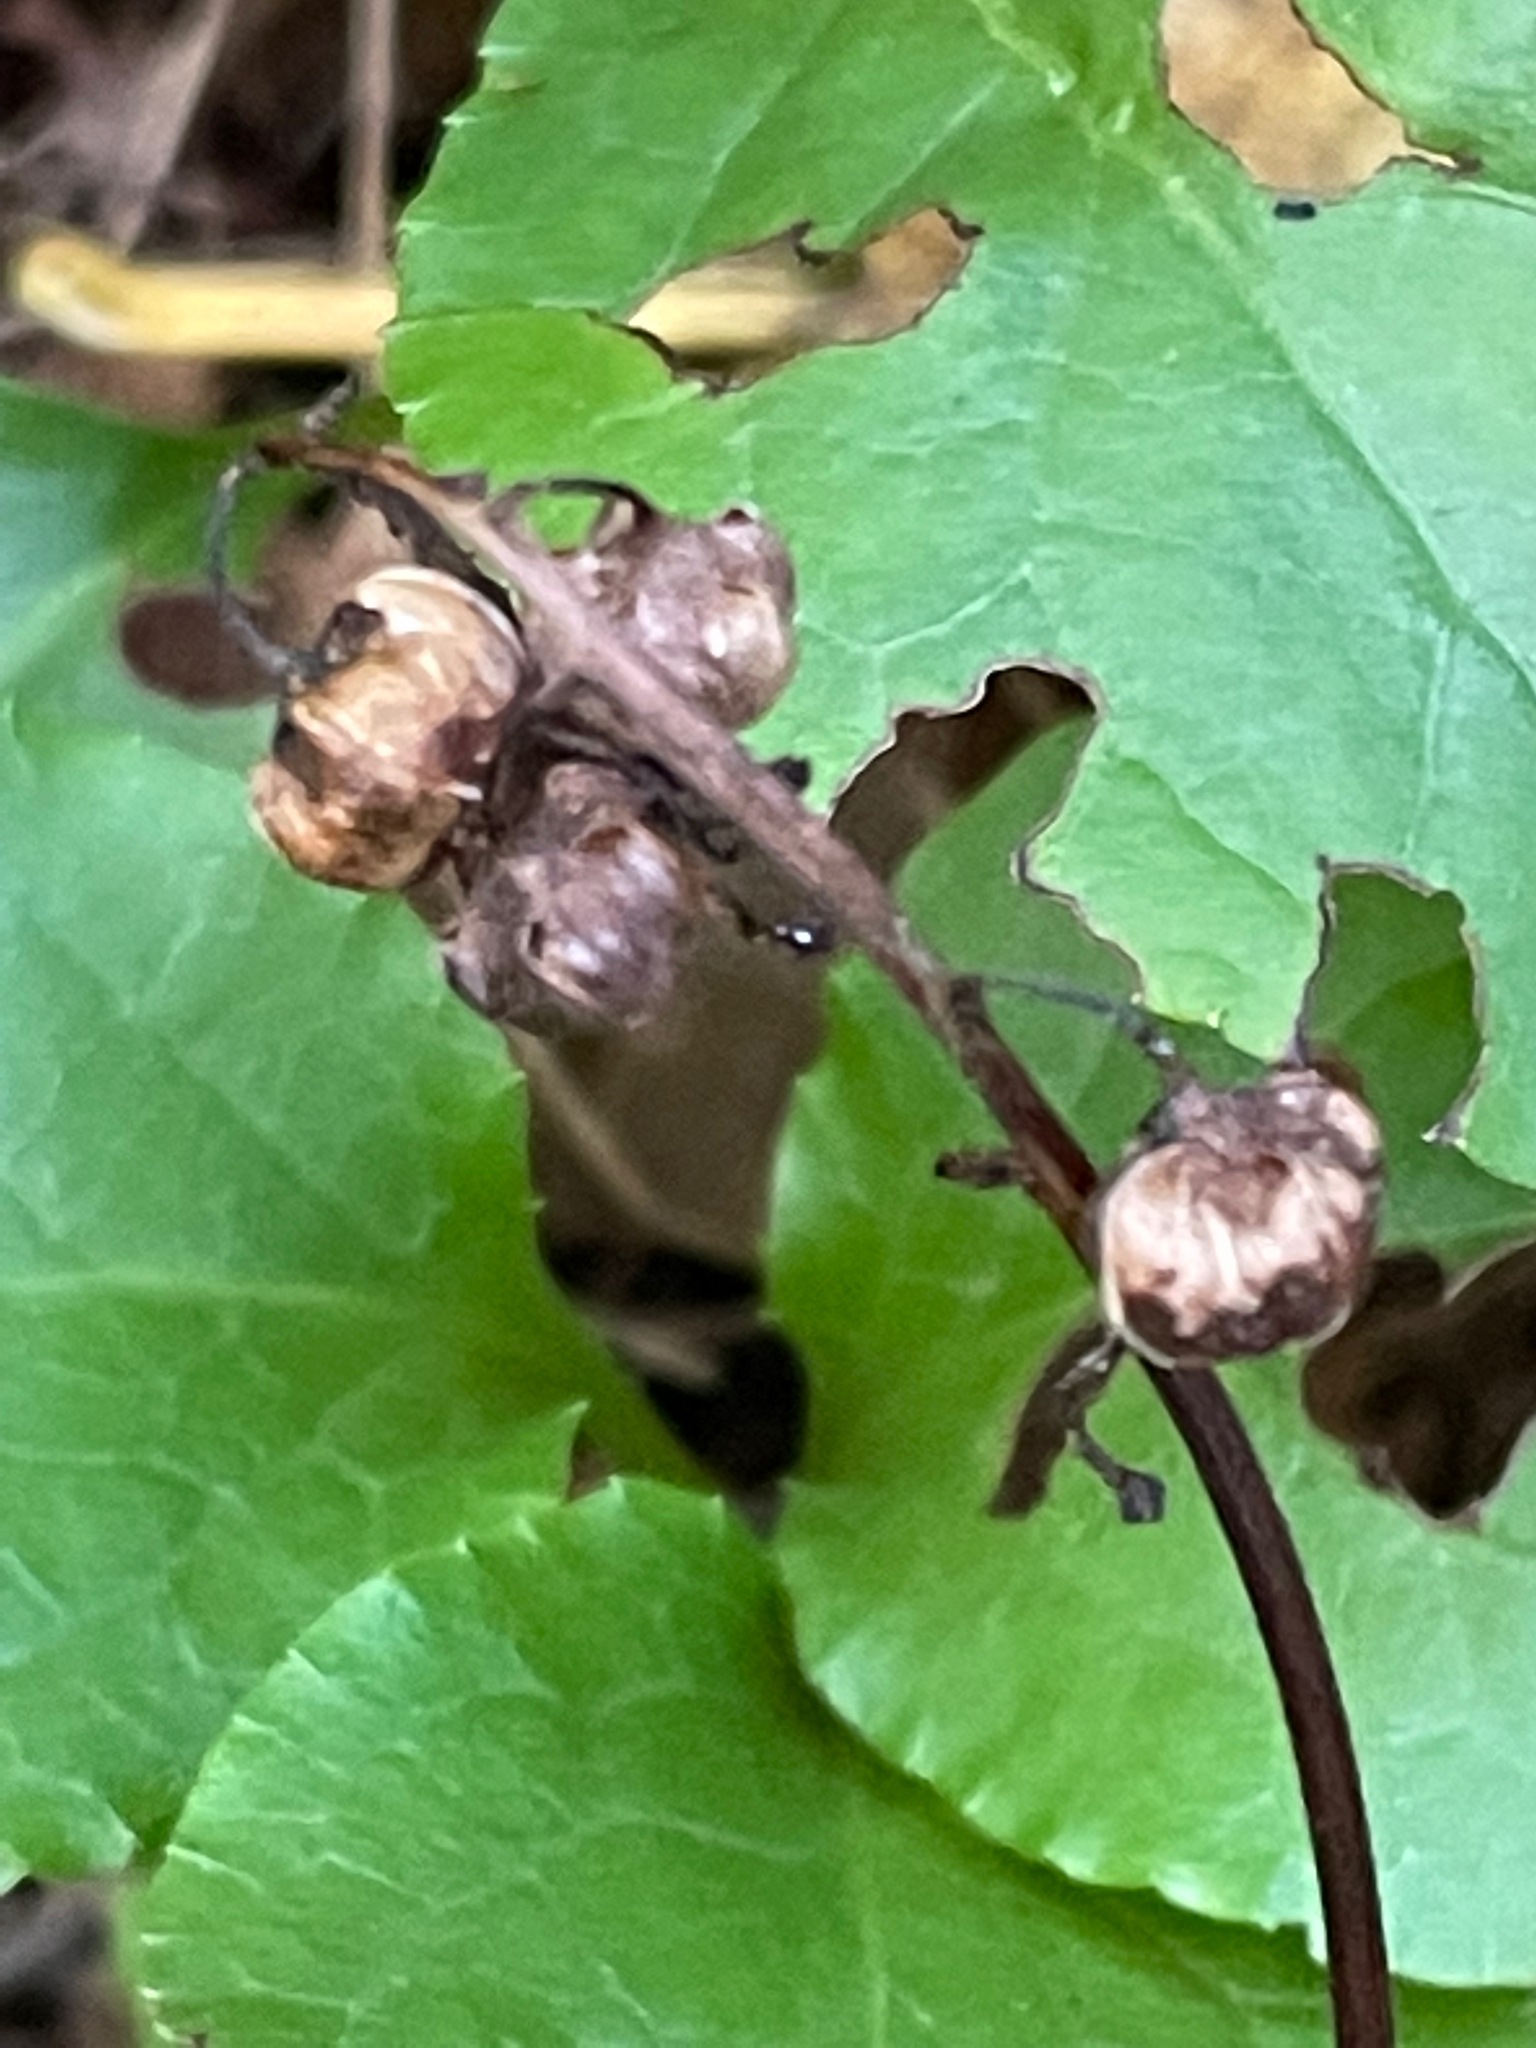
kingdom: Plantae
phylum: Tracheophyta
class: Magnoliopsida
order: Ericales
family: Ericaceae
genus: Pyrola
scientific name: Pyrola elliptica
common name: Shinleaf
